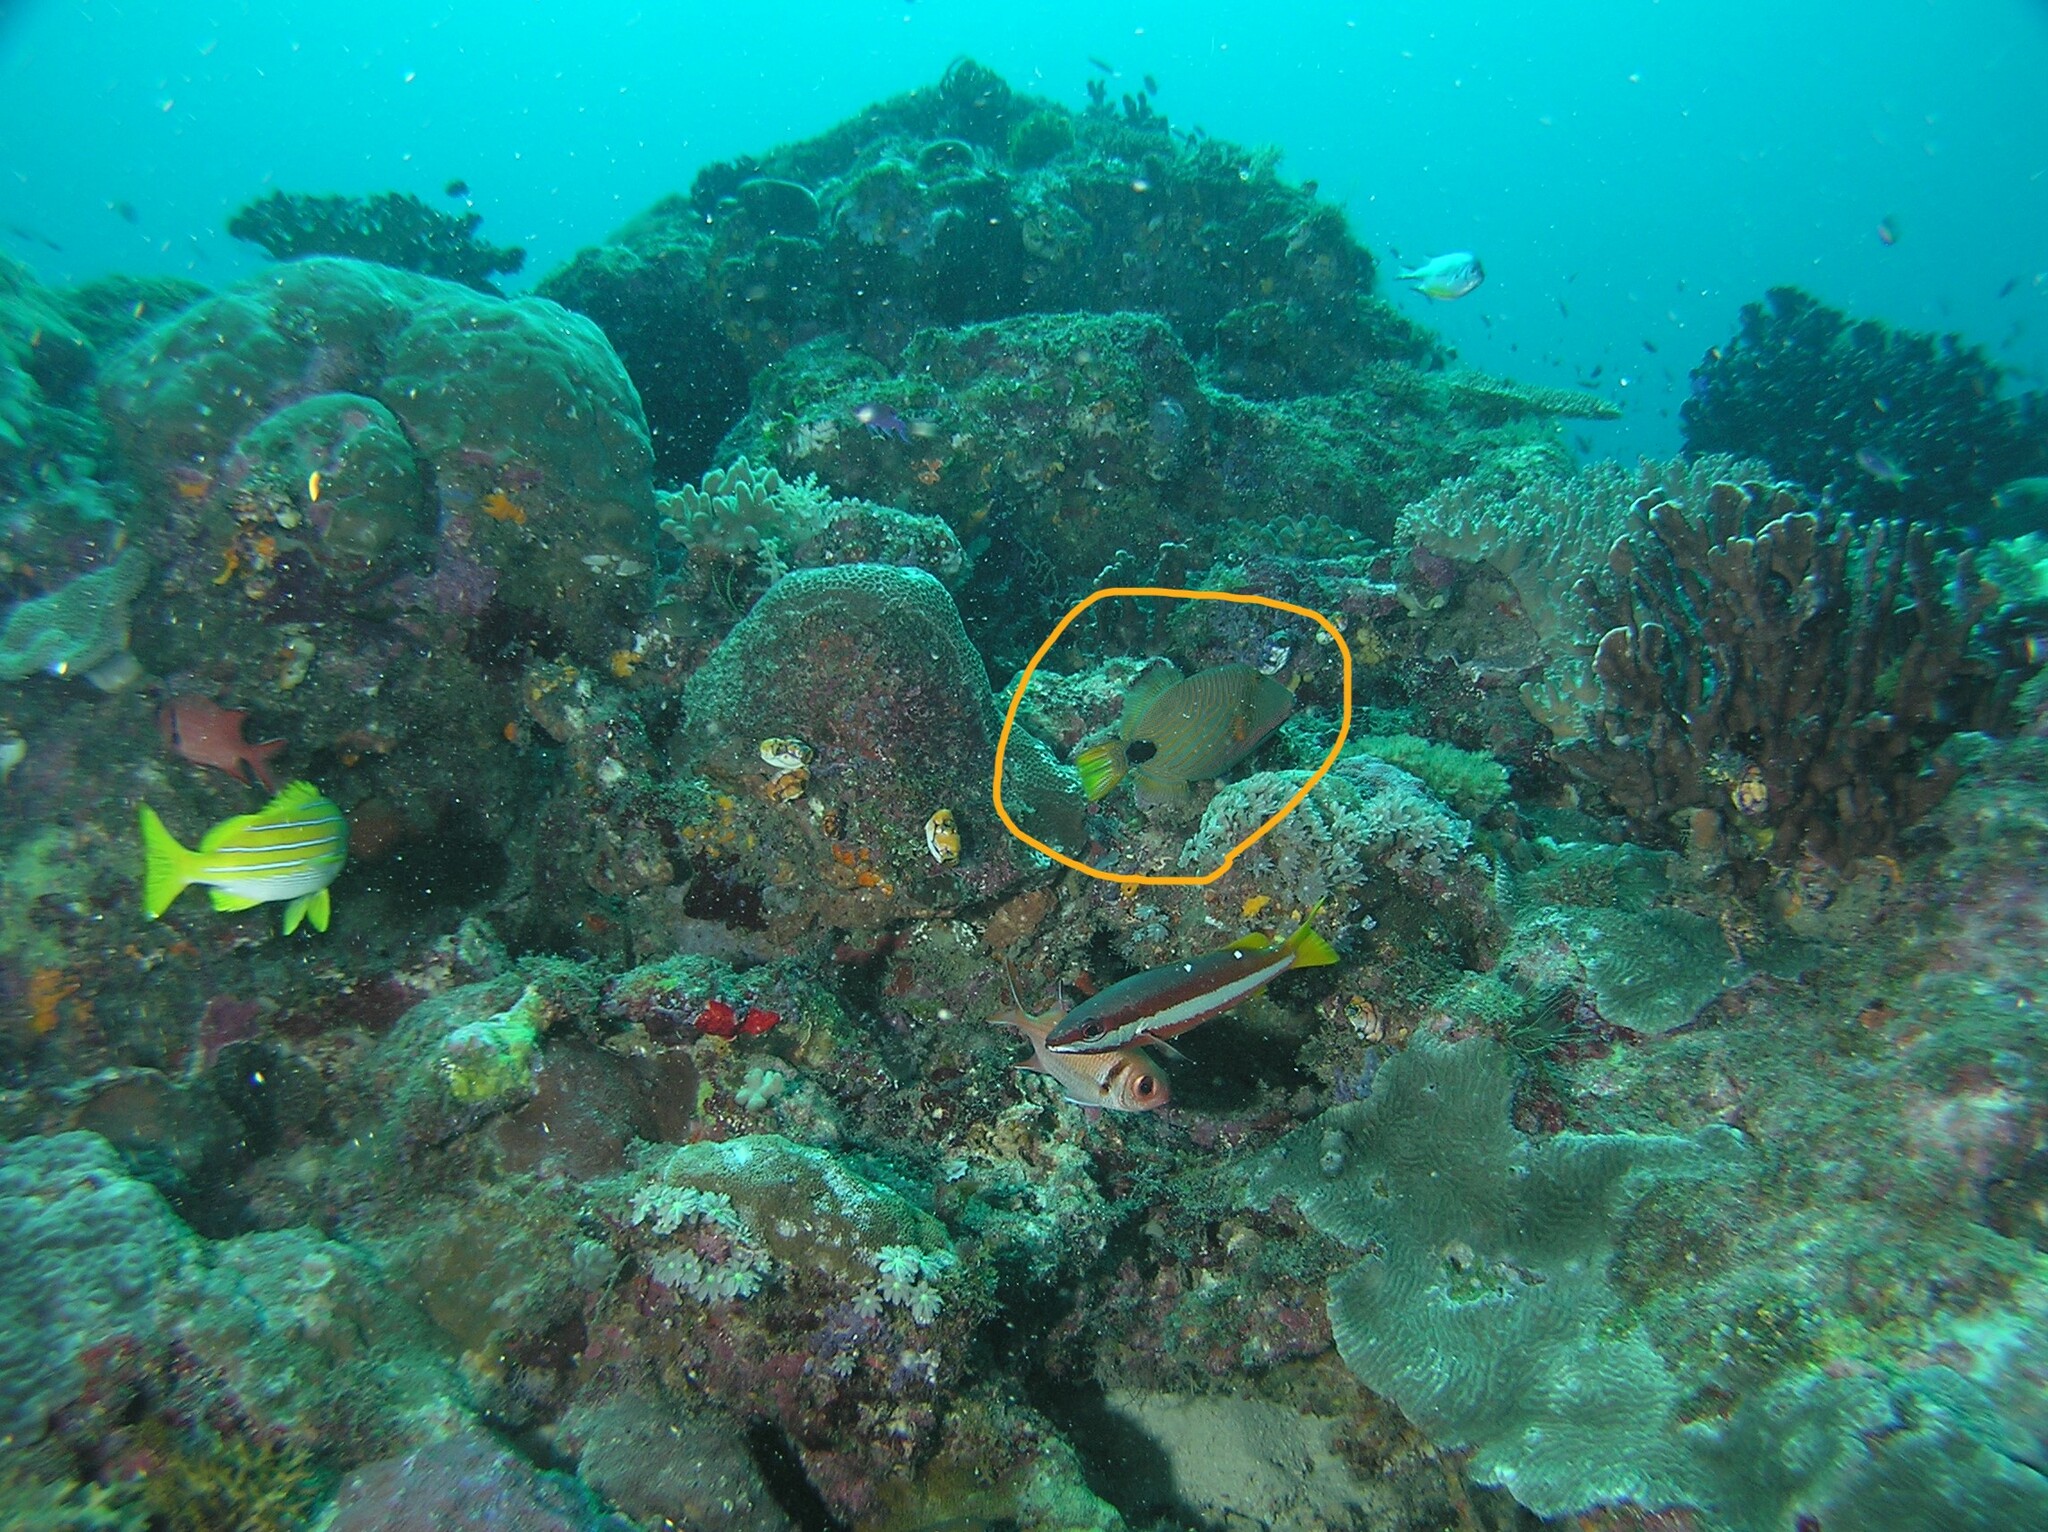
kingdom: Animalia
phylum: Chordata
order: Tetraodontiformes
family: Balistidae
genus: Balistapus
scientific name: Balistapus undulatus
